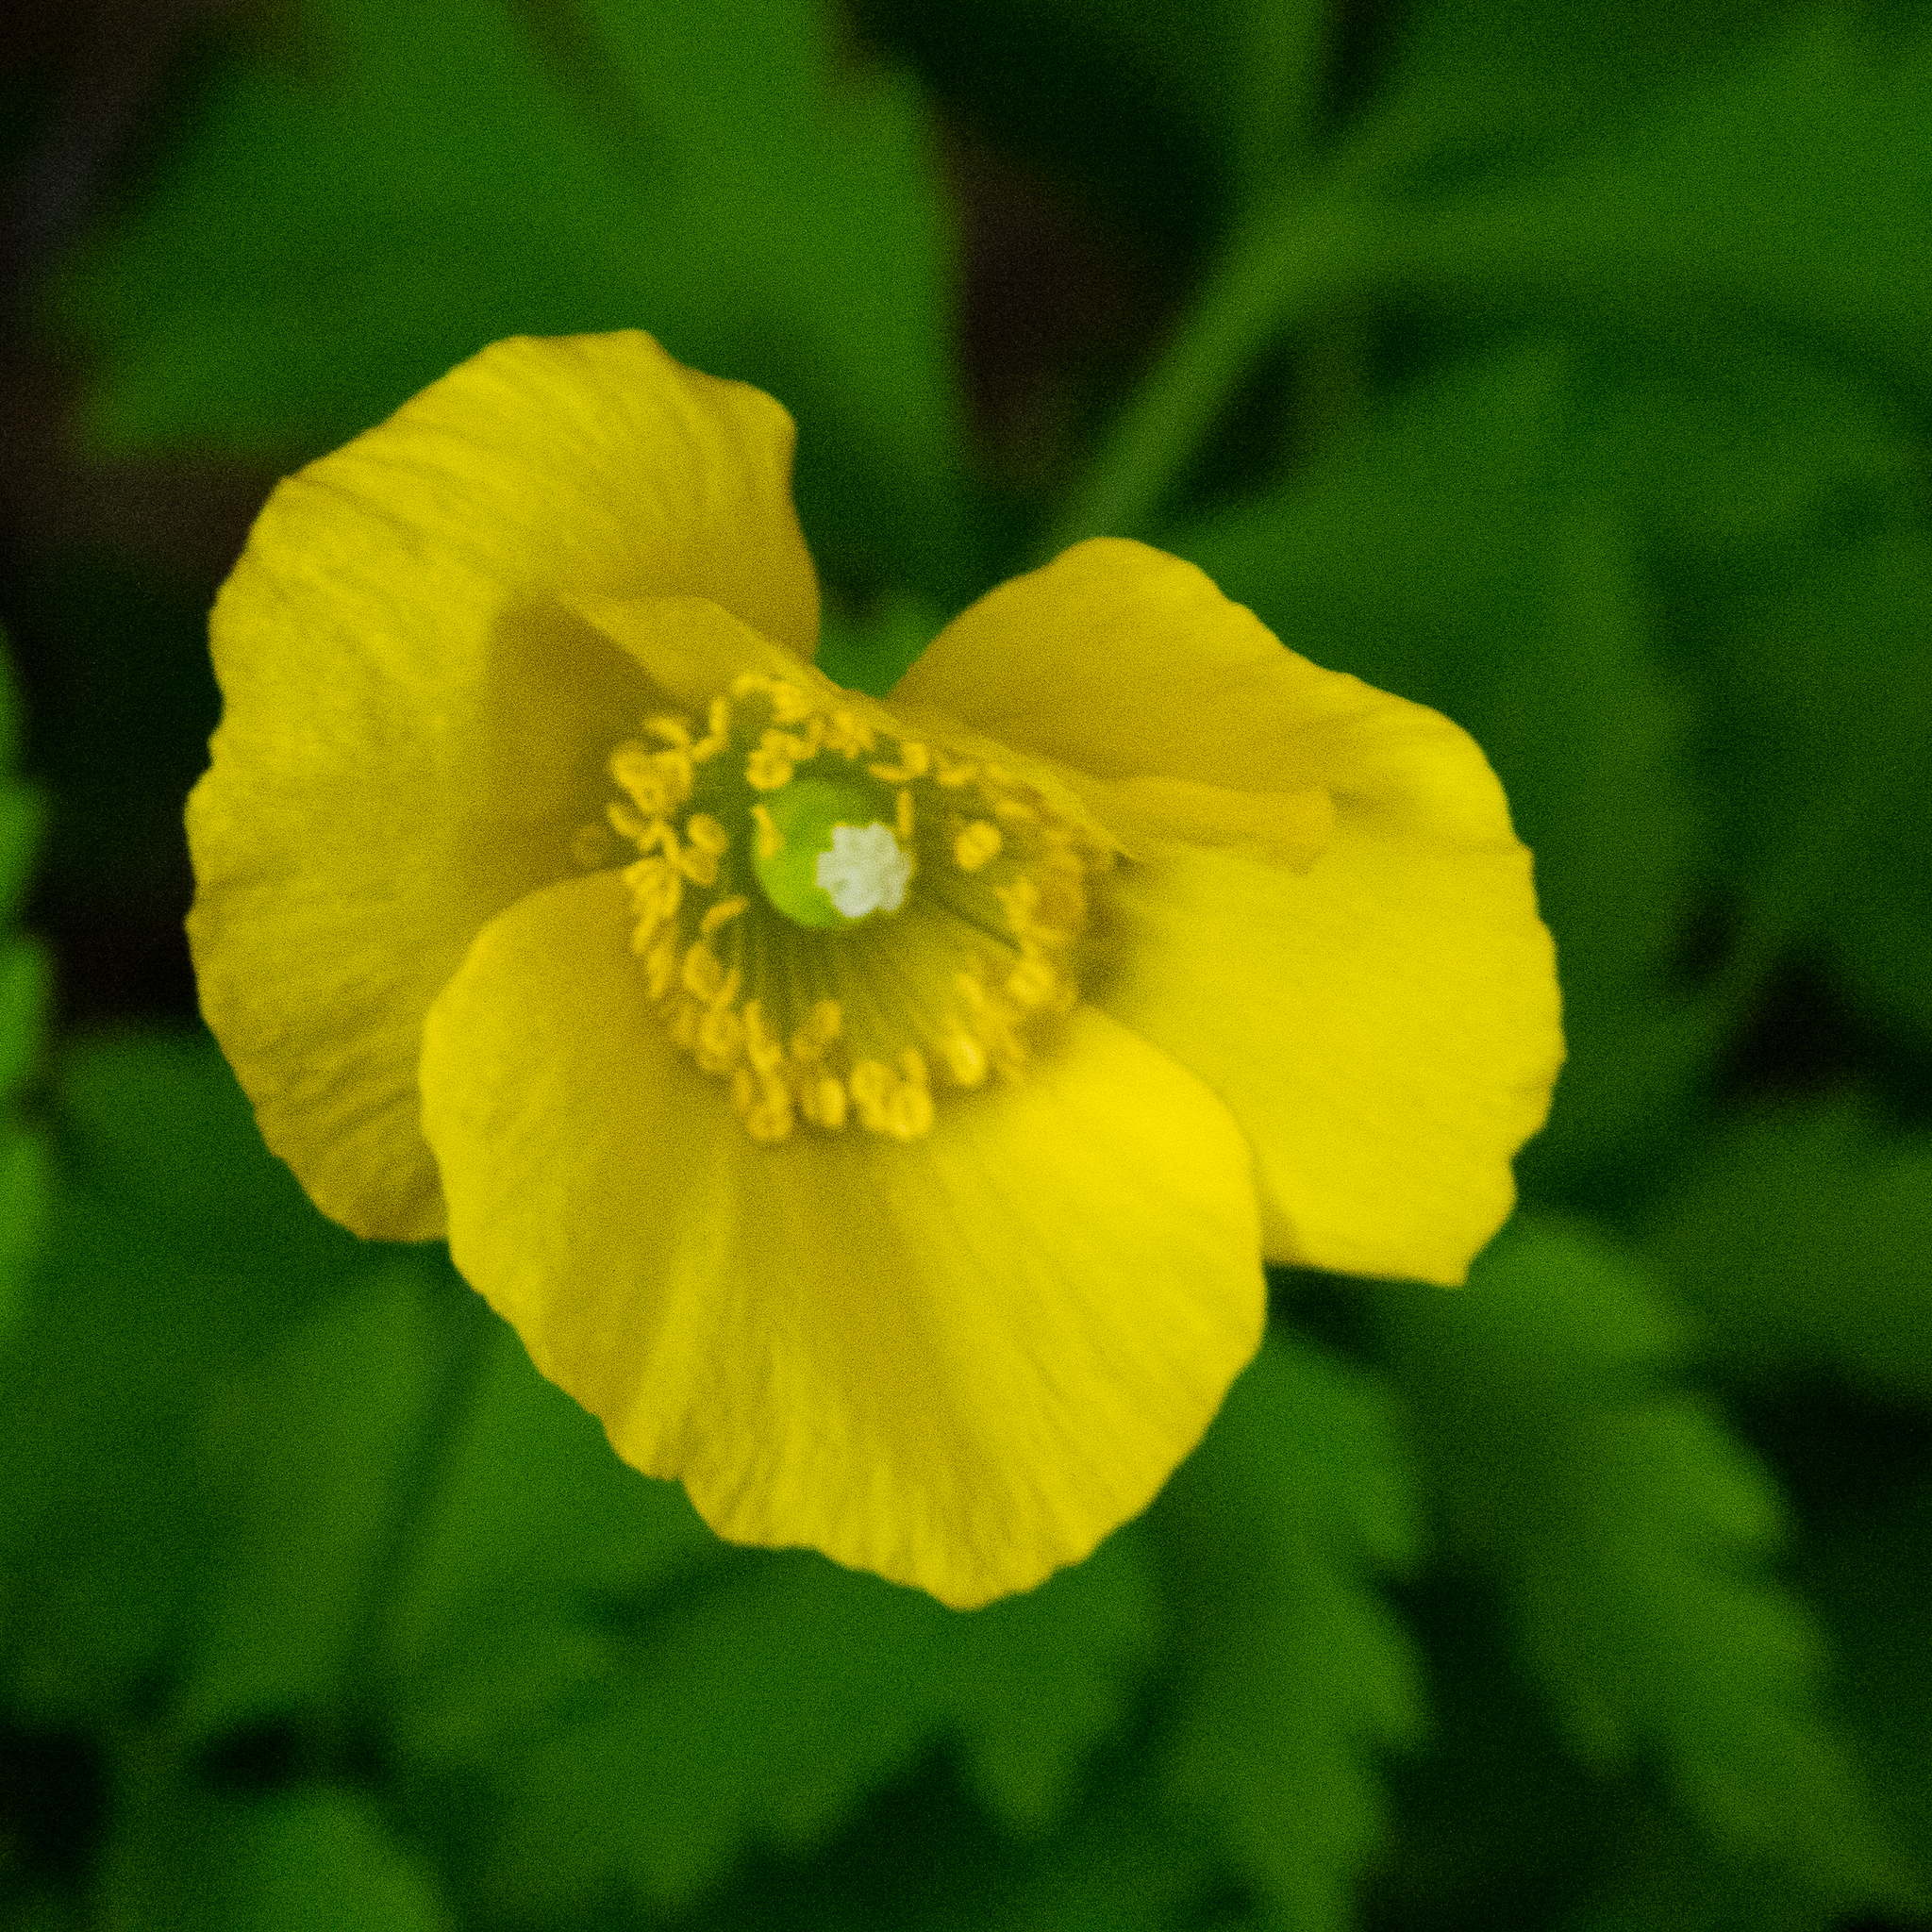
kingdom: Plantae
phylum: Tracheophyta
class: Magnoliopsida
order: Ranunculales
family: Papaveraceae
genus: Papaver
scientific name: Papaver cambricum
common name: Poppy
